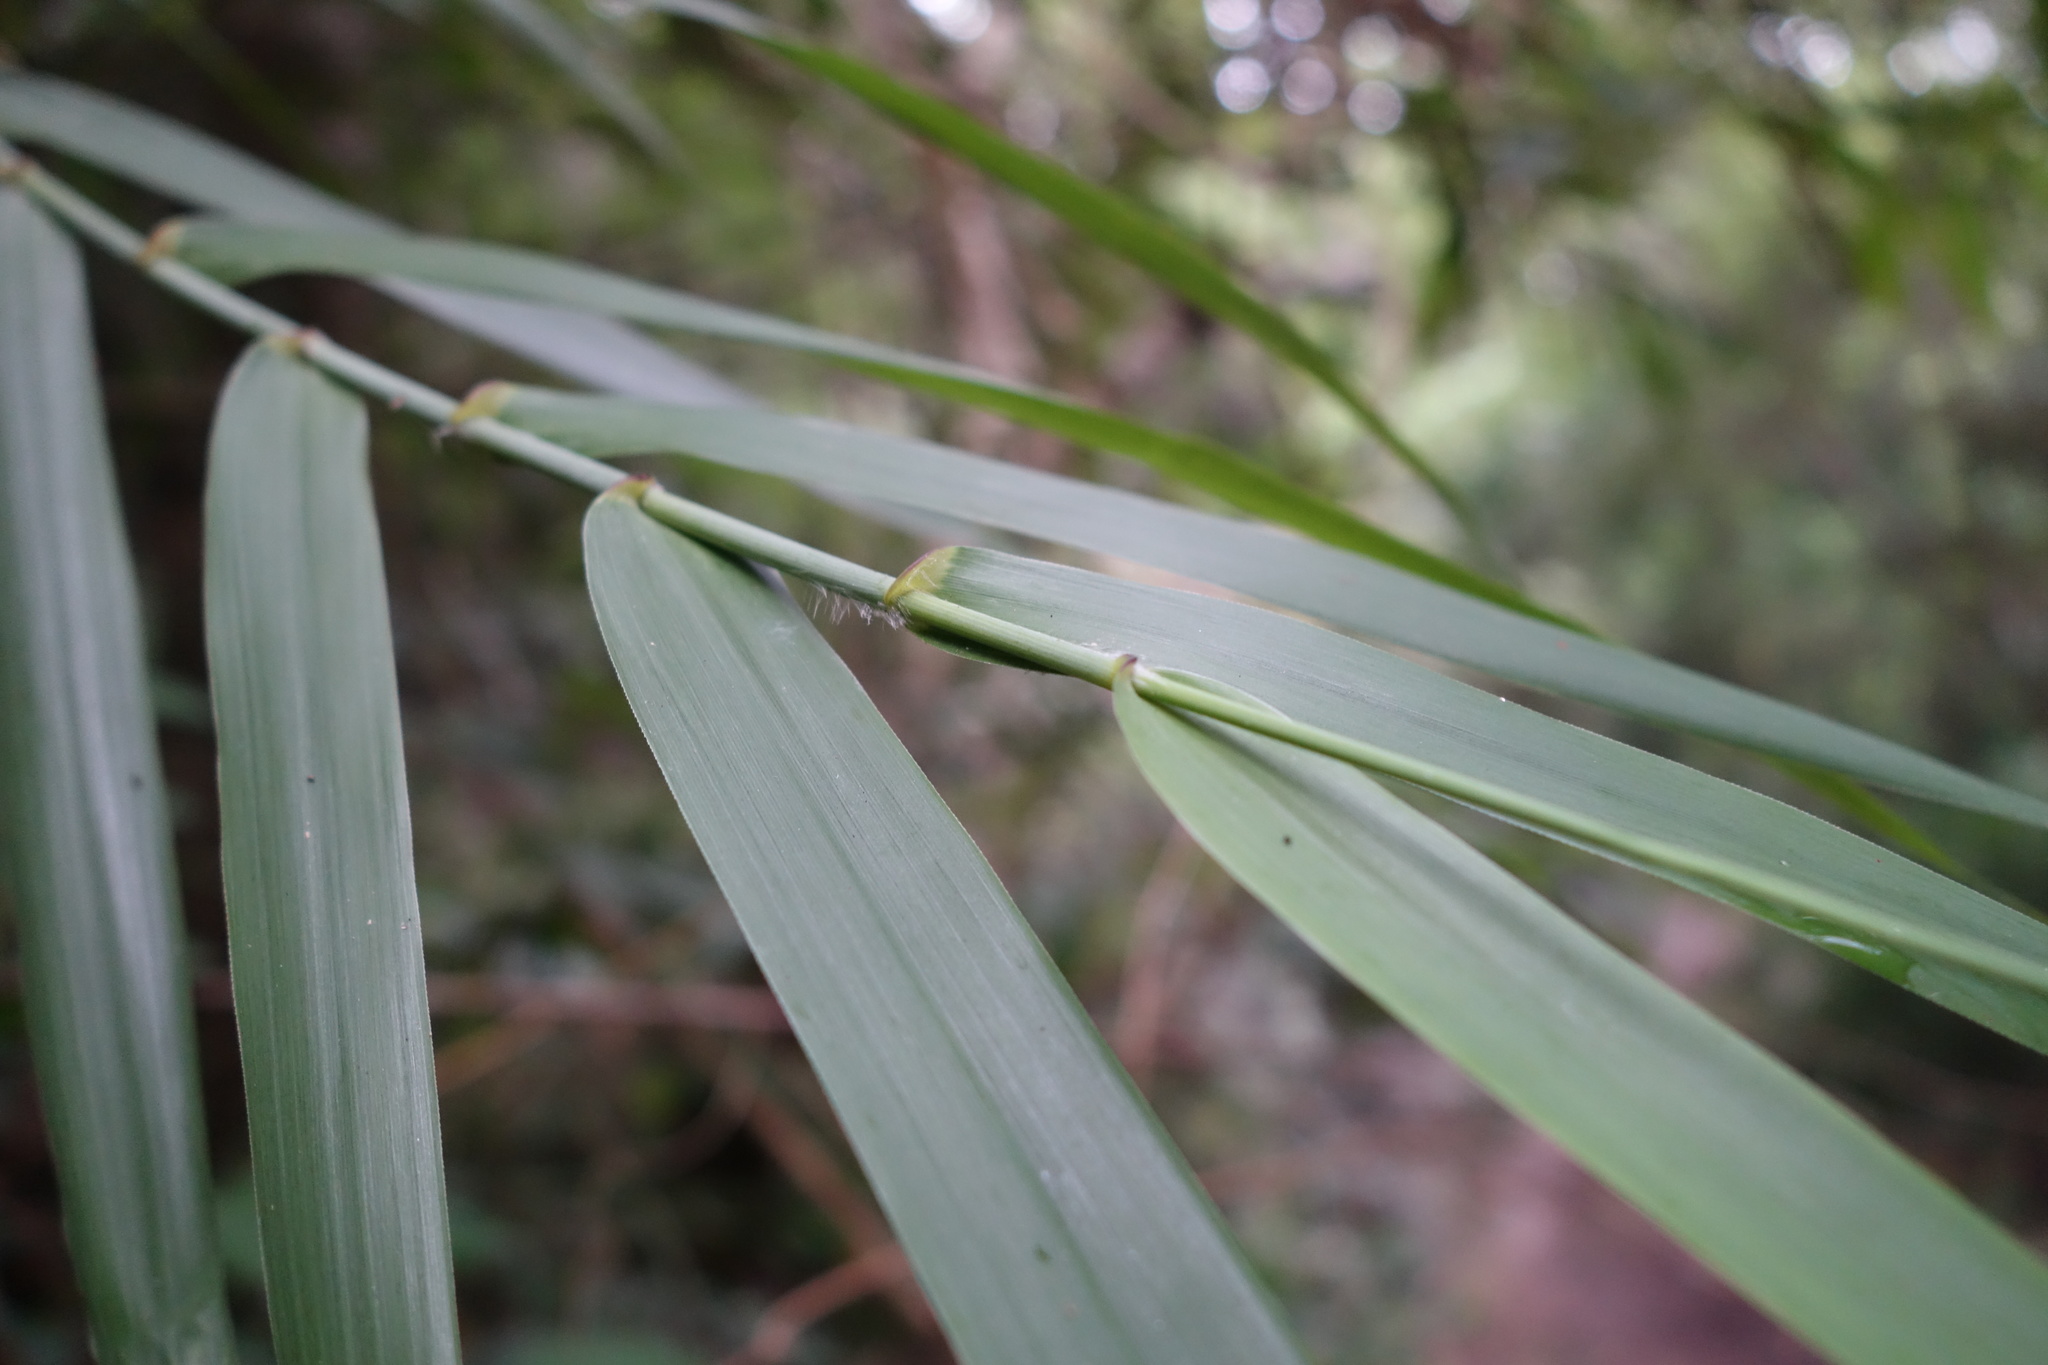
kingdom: Plantae
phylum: Tracheophyta
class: Liliopsida
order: Poales
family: Poaceae
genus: Arundo
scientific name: Arundo formosana
